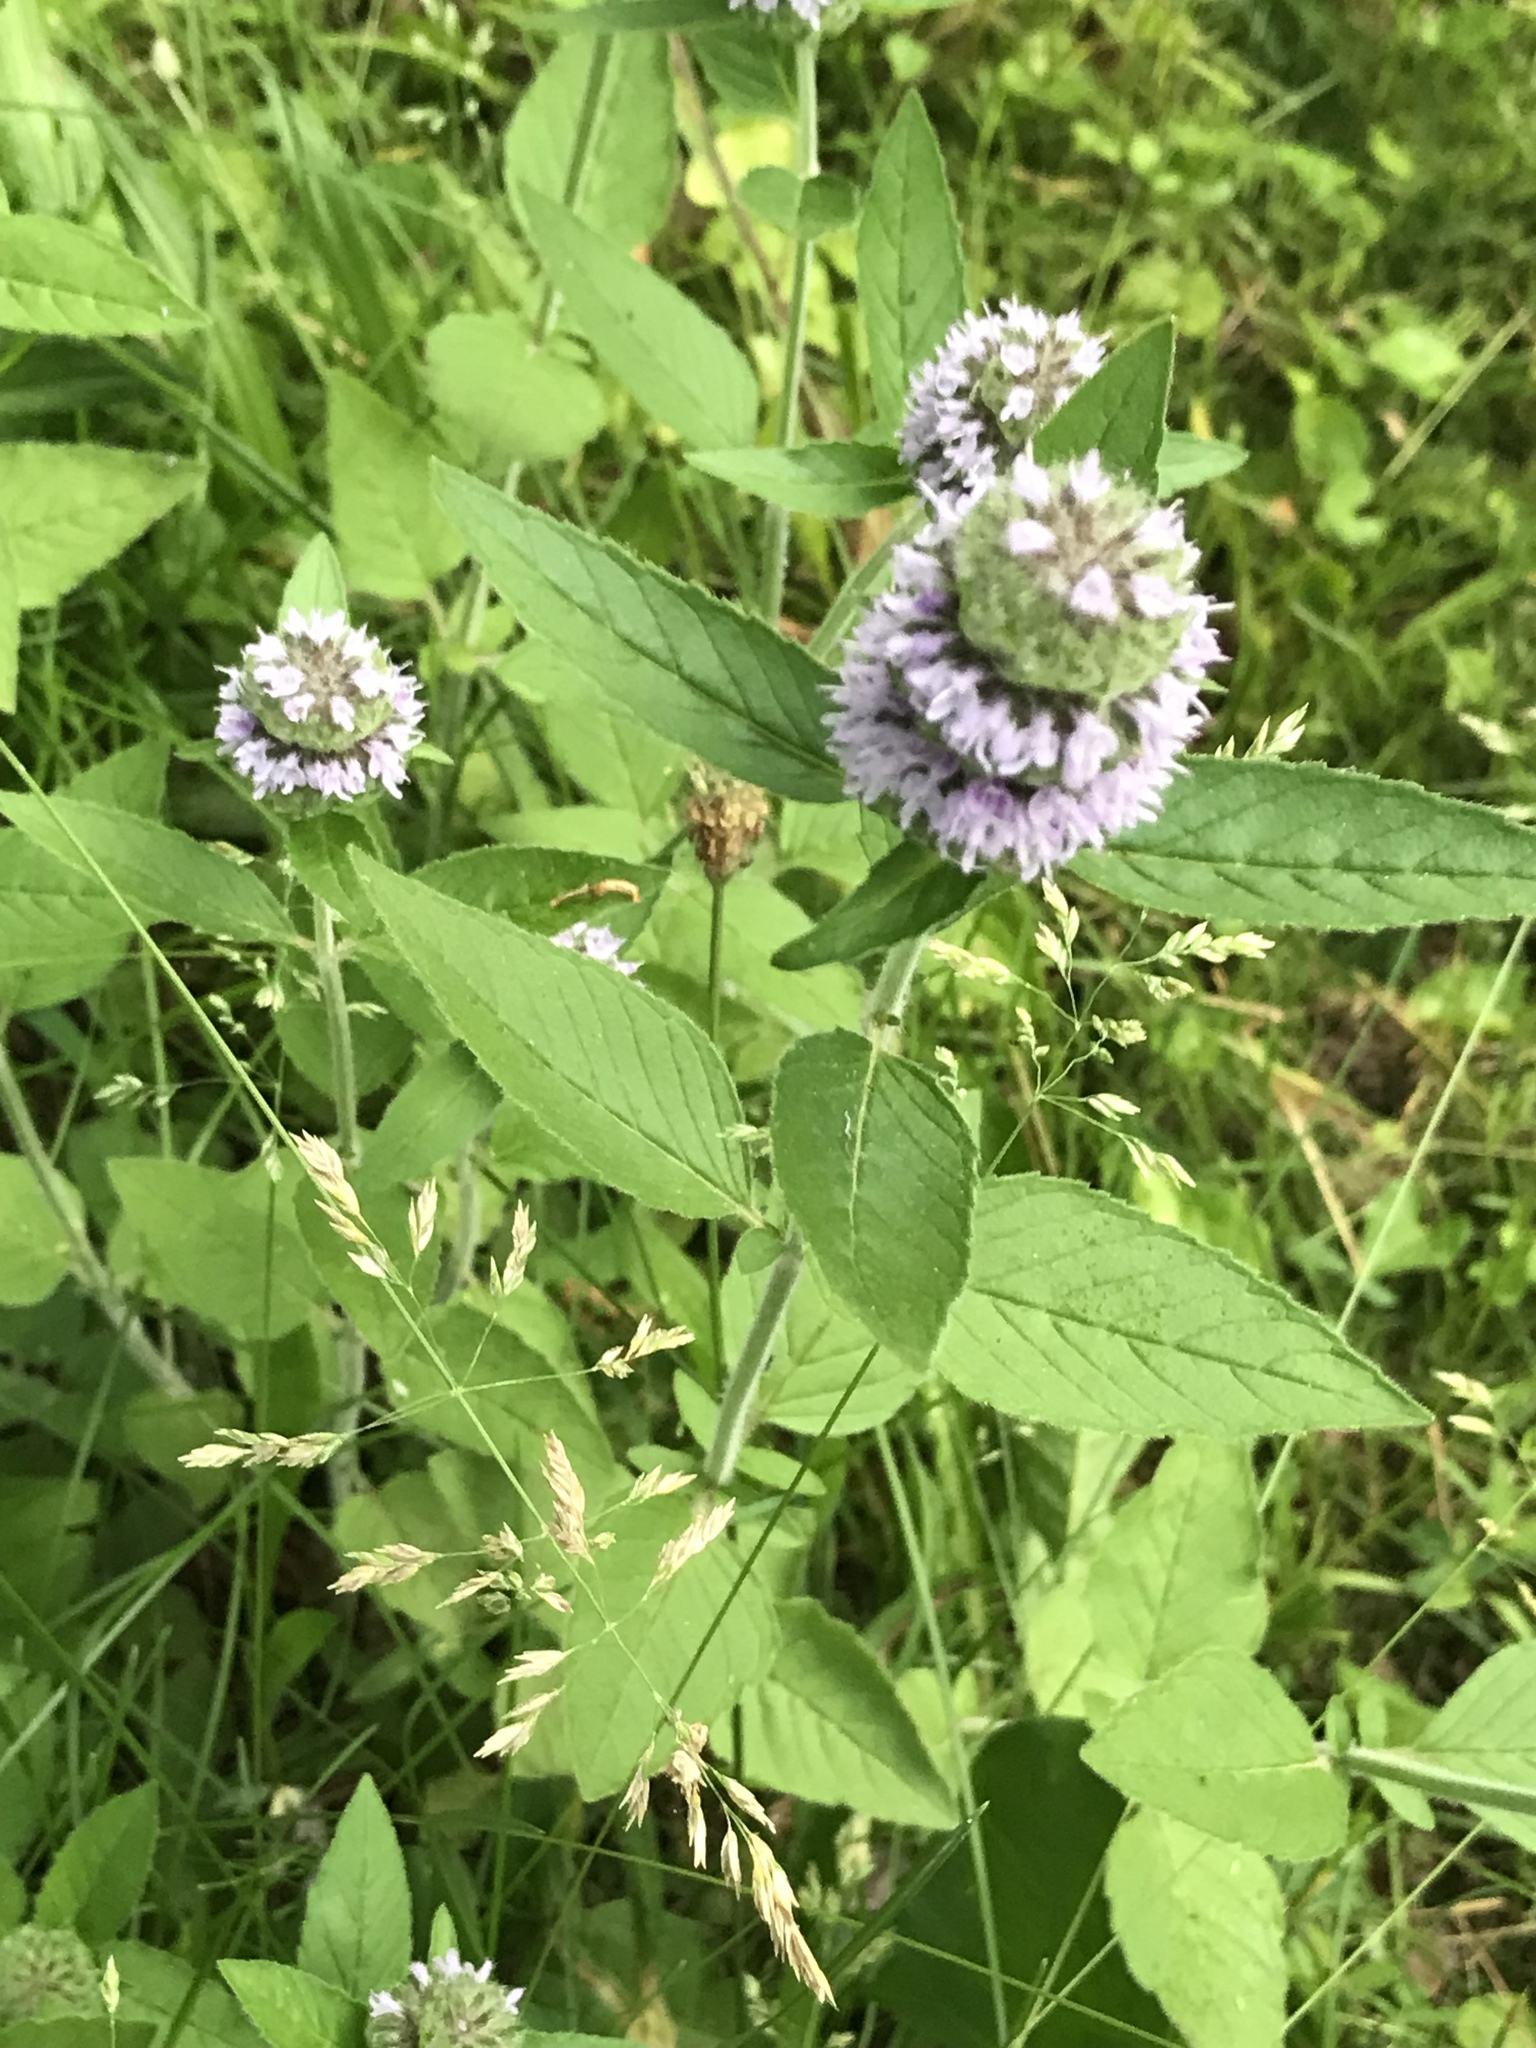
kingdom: Plantae
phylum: Tracheophyta
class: Magnoliopsida
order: Lamiales
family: Lamiaceae
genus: Blephilia
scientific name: Blephilia ciliata
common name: Downy blephilia
